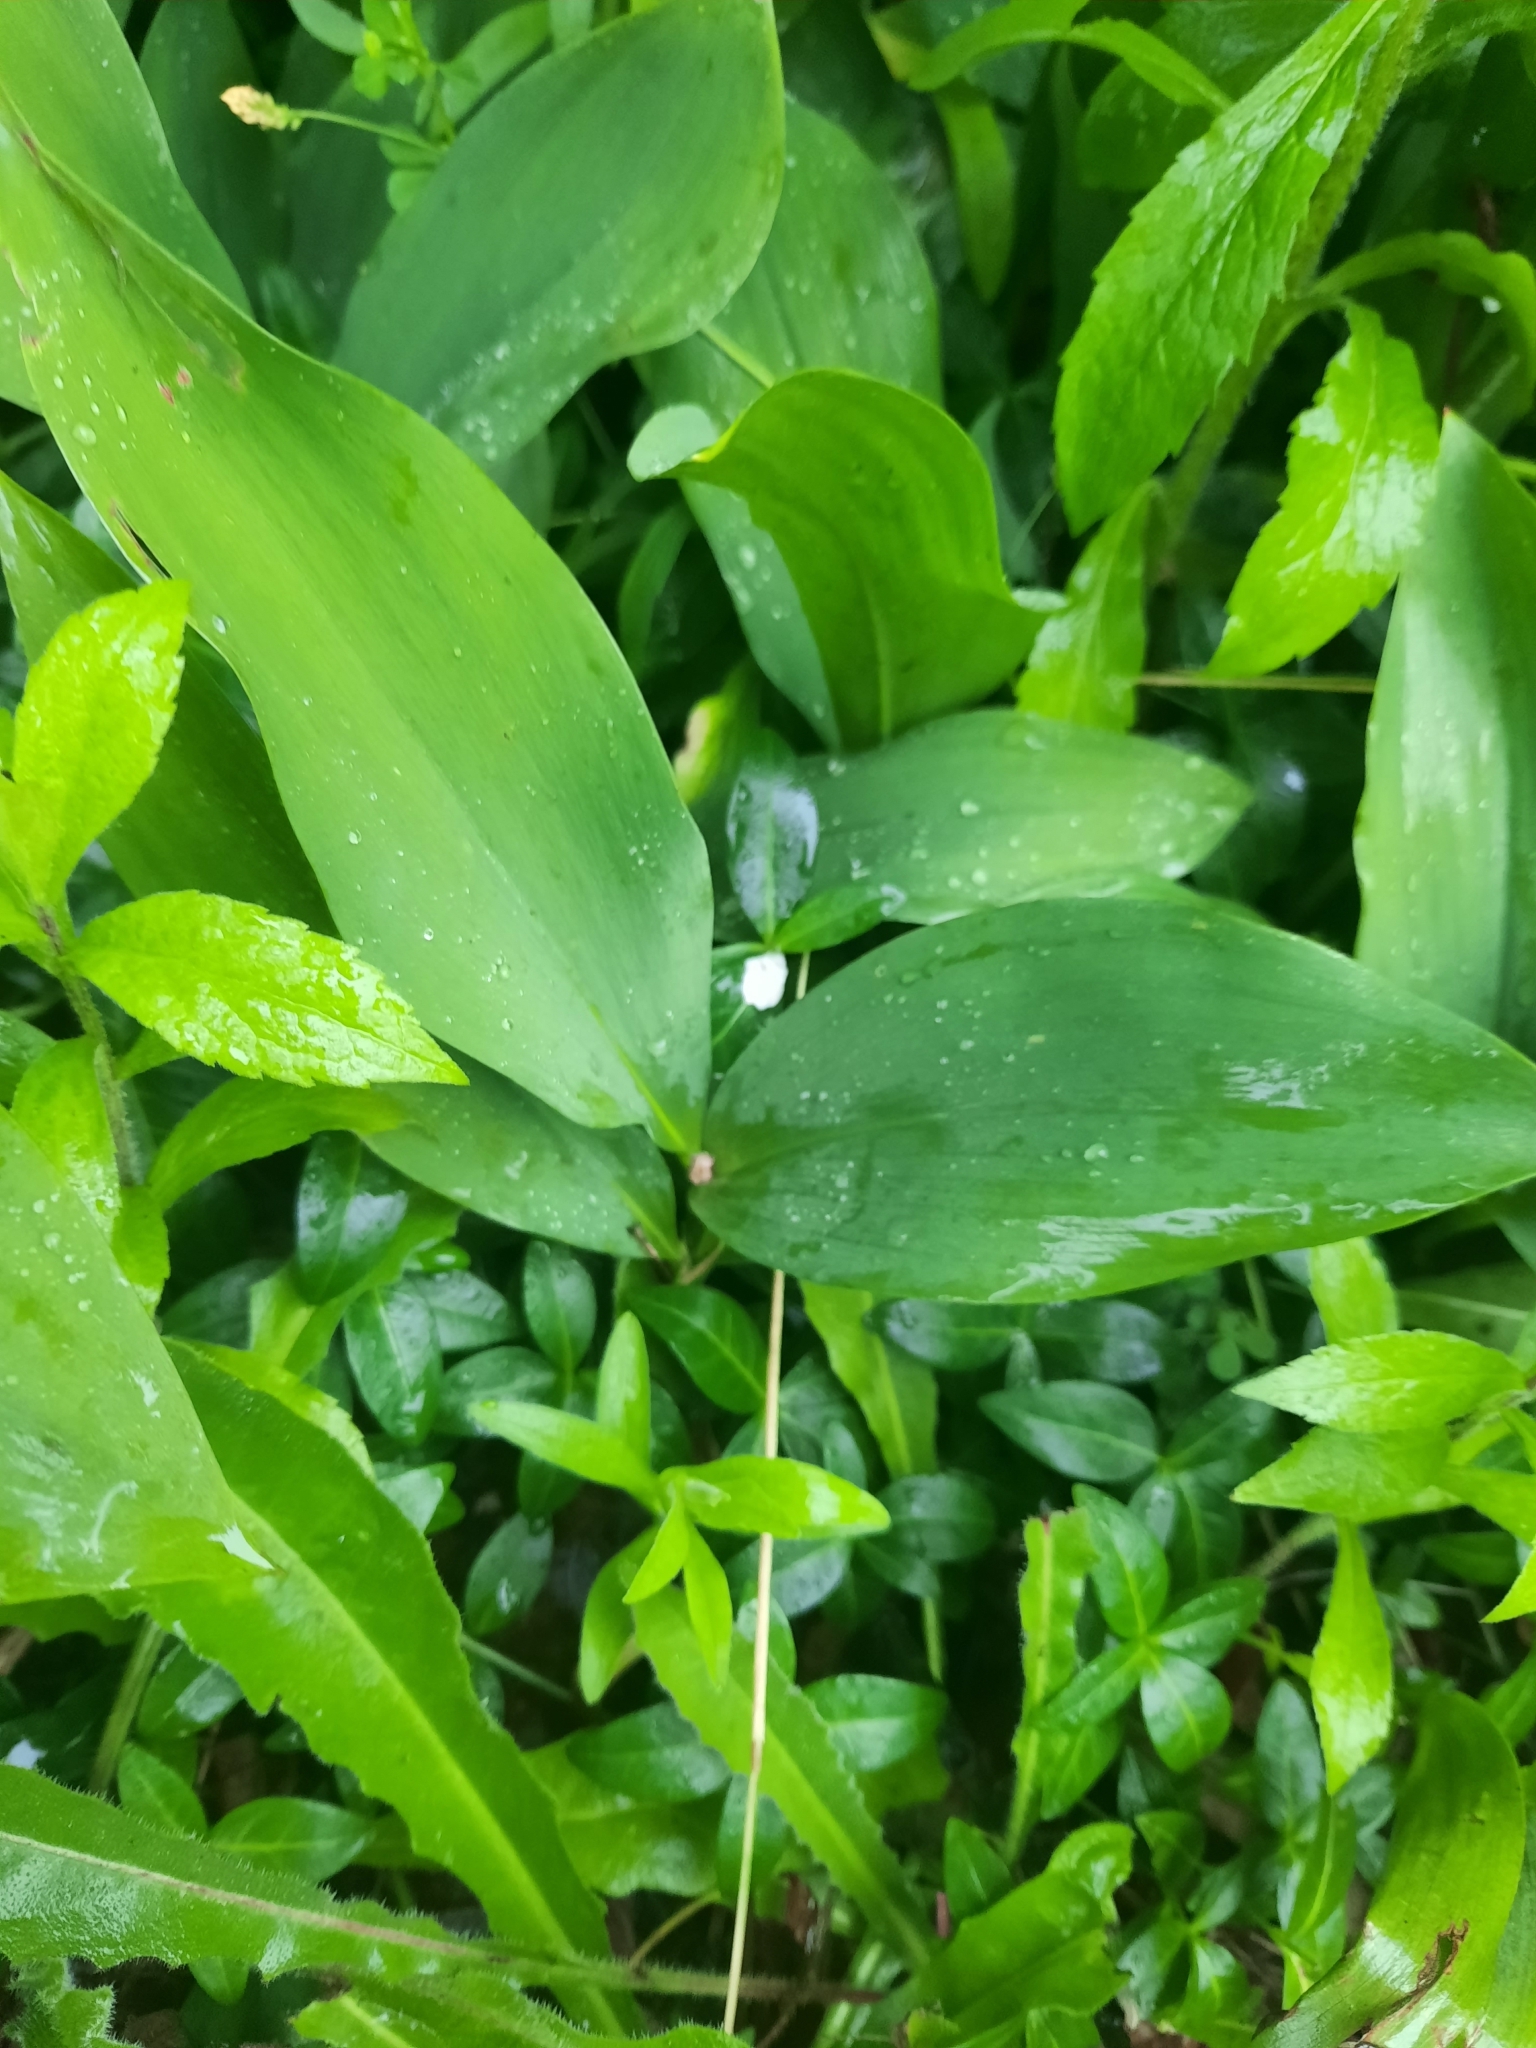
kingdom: Plantae
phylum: Tracheophyta
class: Liliopsida
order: Asparagales
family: Asparagaceae
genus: Convallaria
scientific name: Convallaria majalis
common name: Lily-of-the-valley
